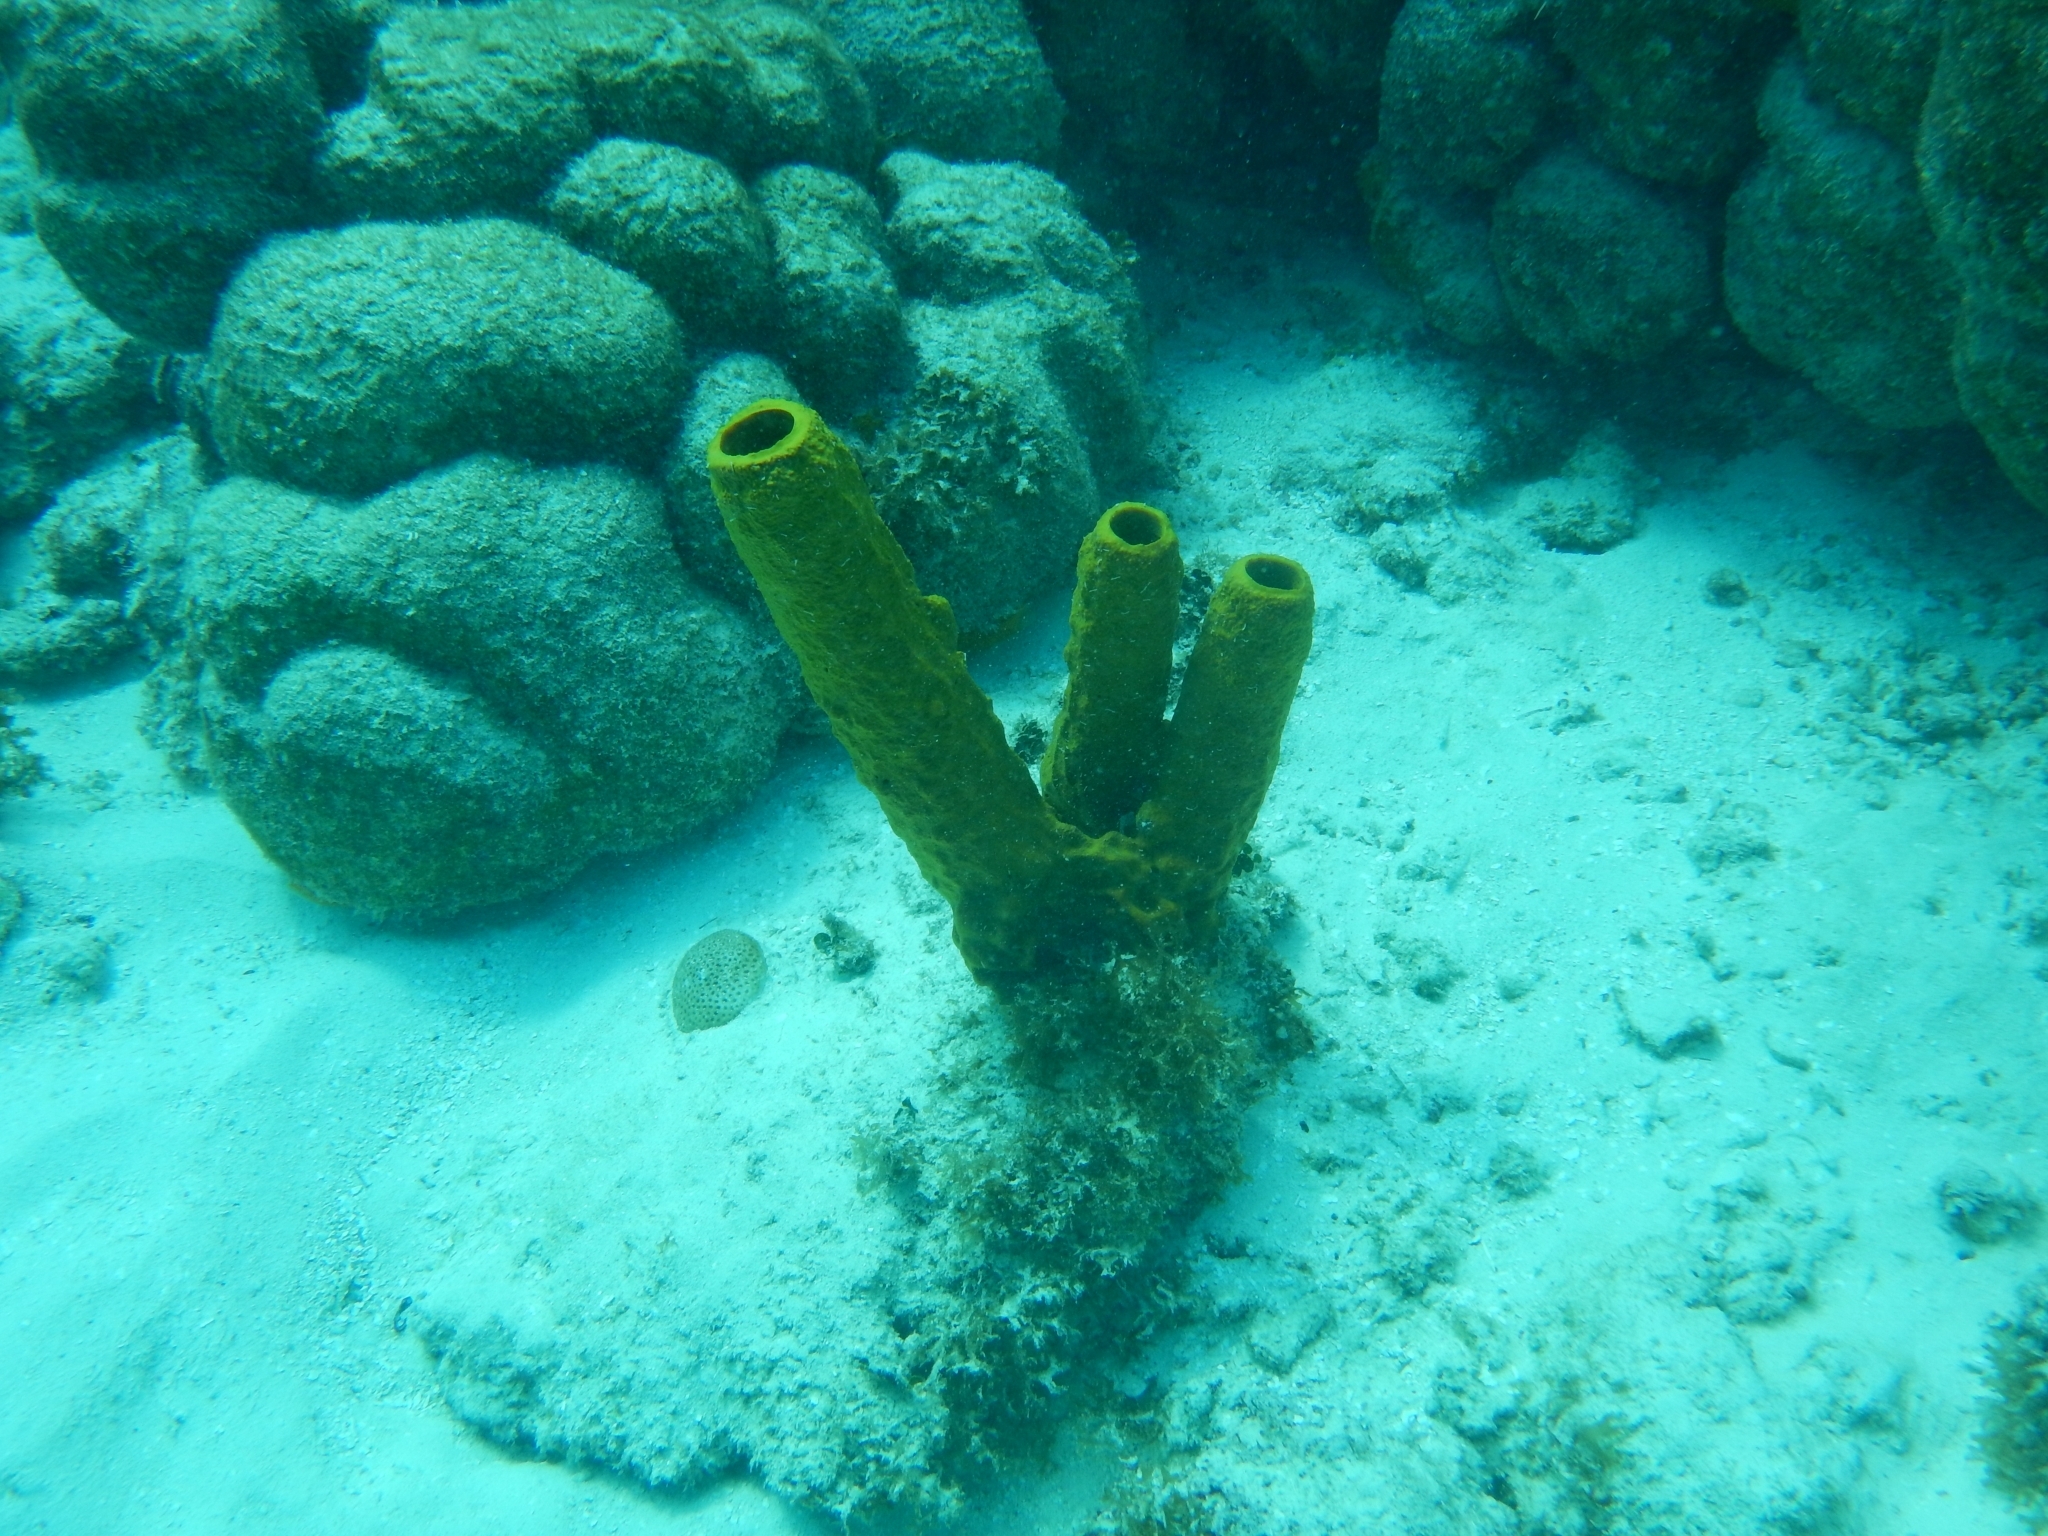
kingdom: Animalia
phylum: Porifera
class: Demospongiae
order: Verongiida
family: Aplysinidae
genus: Aplysina
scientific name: Aplysina fistularis
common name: Candle sponge
